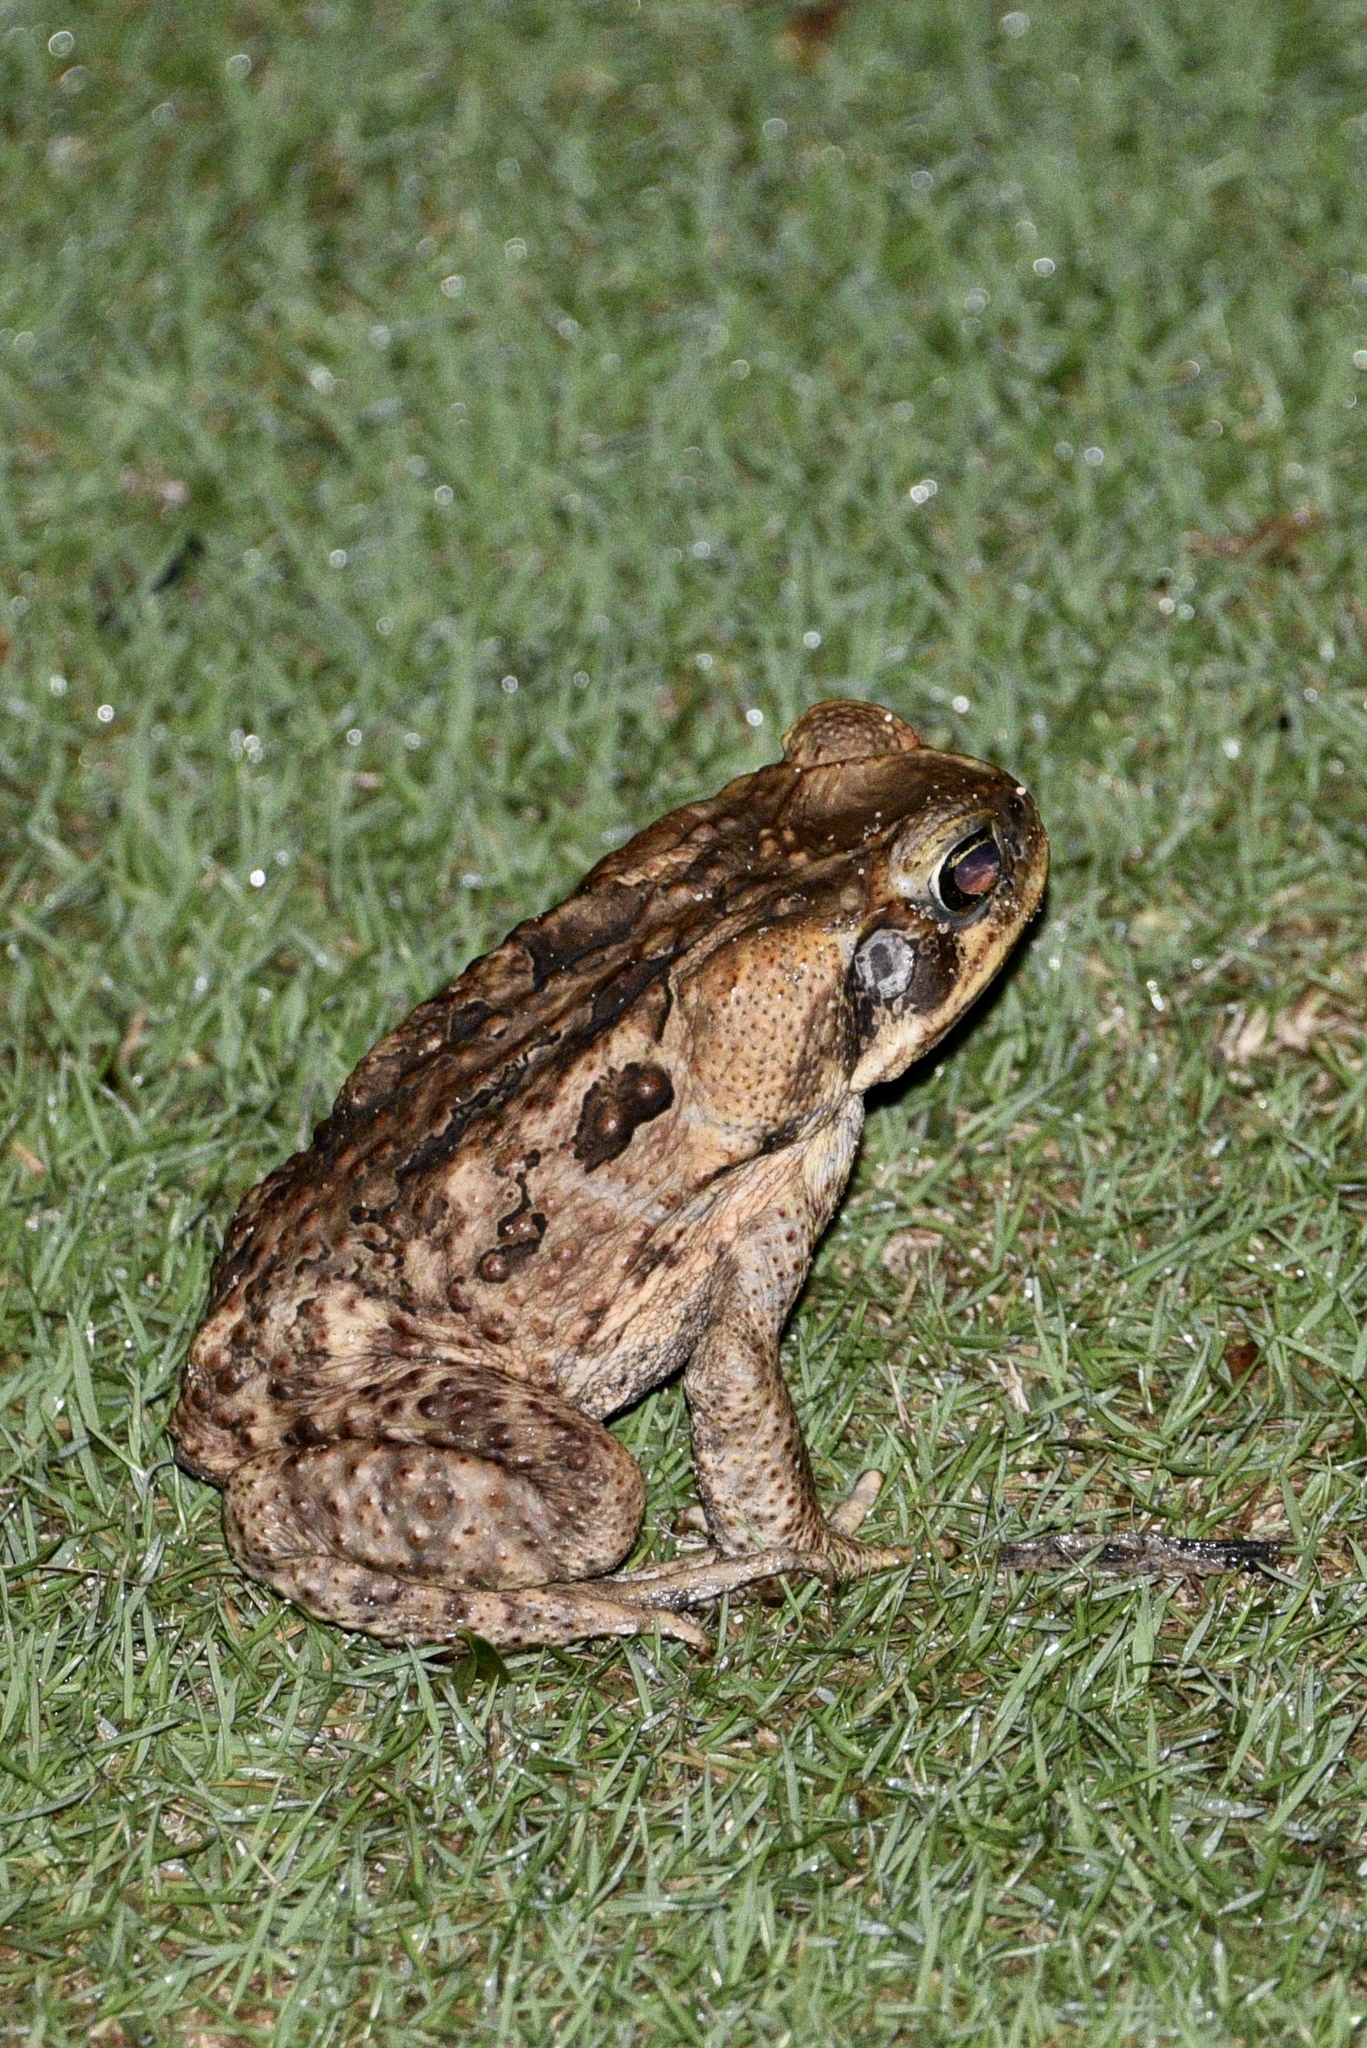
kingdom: Animalia
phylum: Chordata
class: Amphibia
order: Anura
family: Bufonidae
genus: Rhinella
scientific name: Rhinella marina
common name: Cane toad
